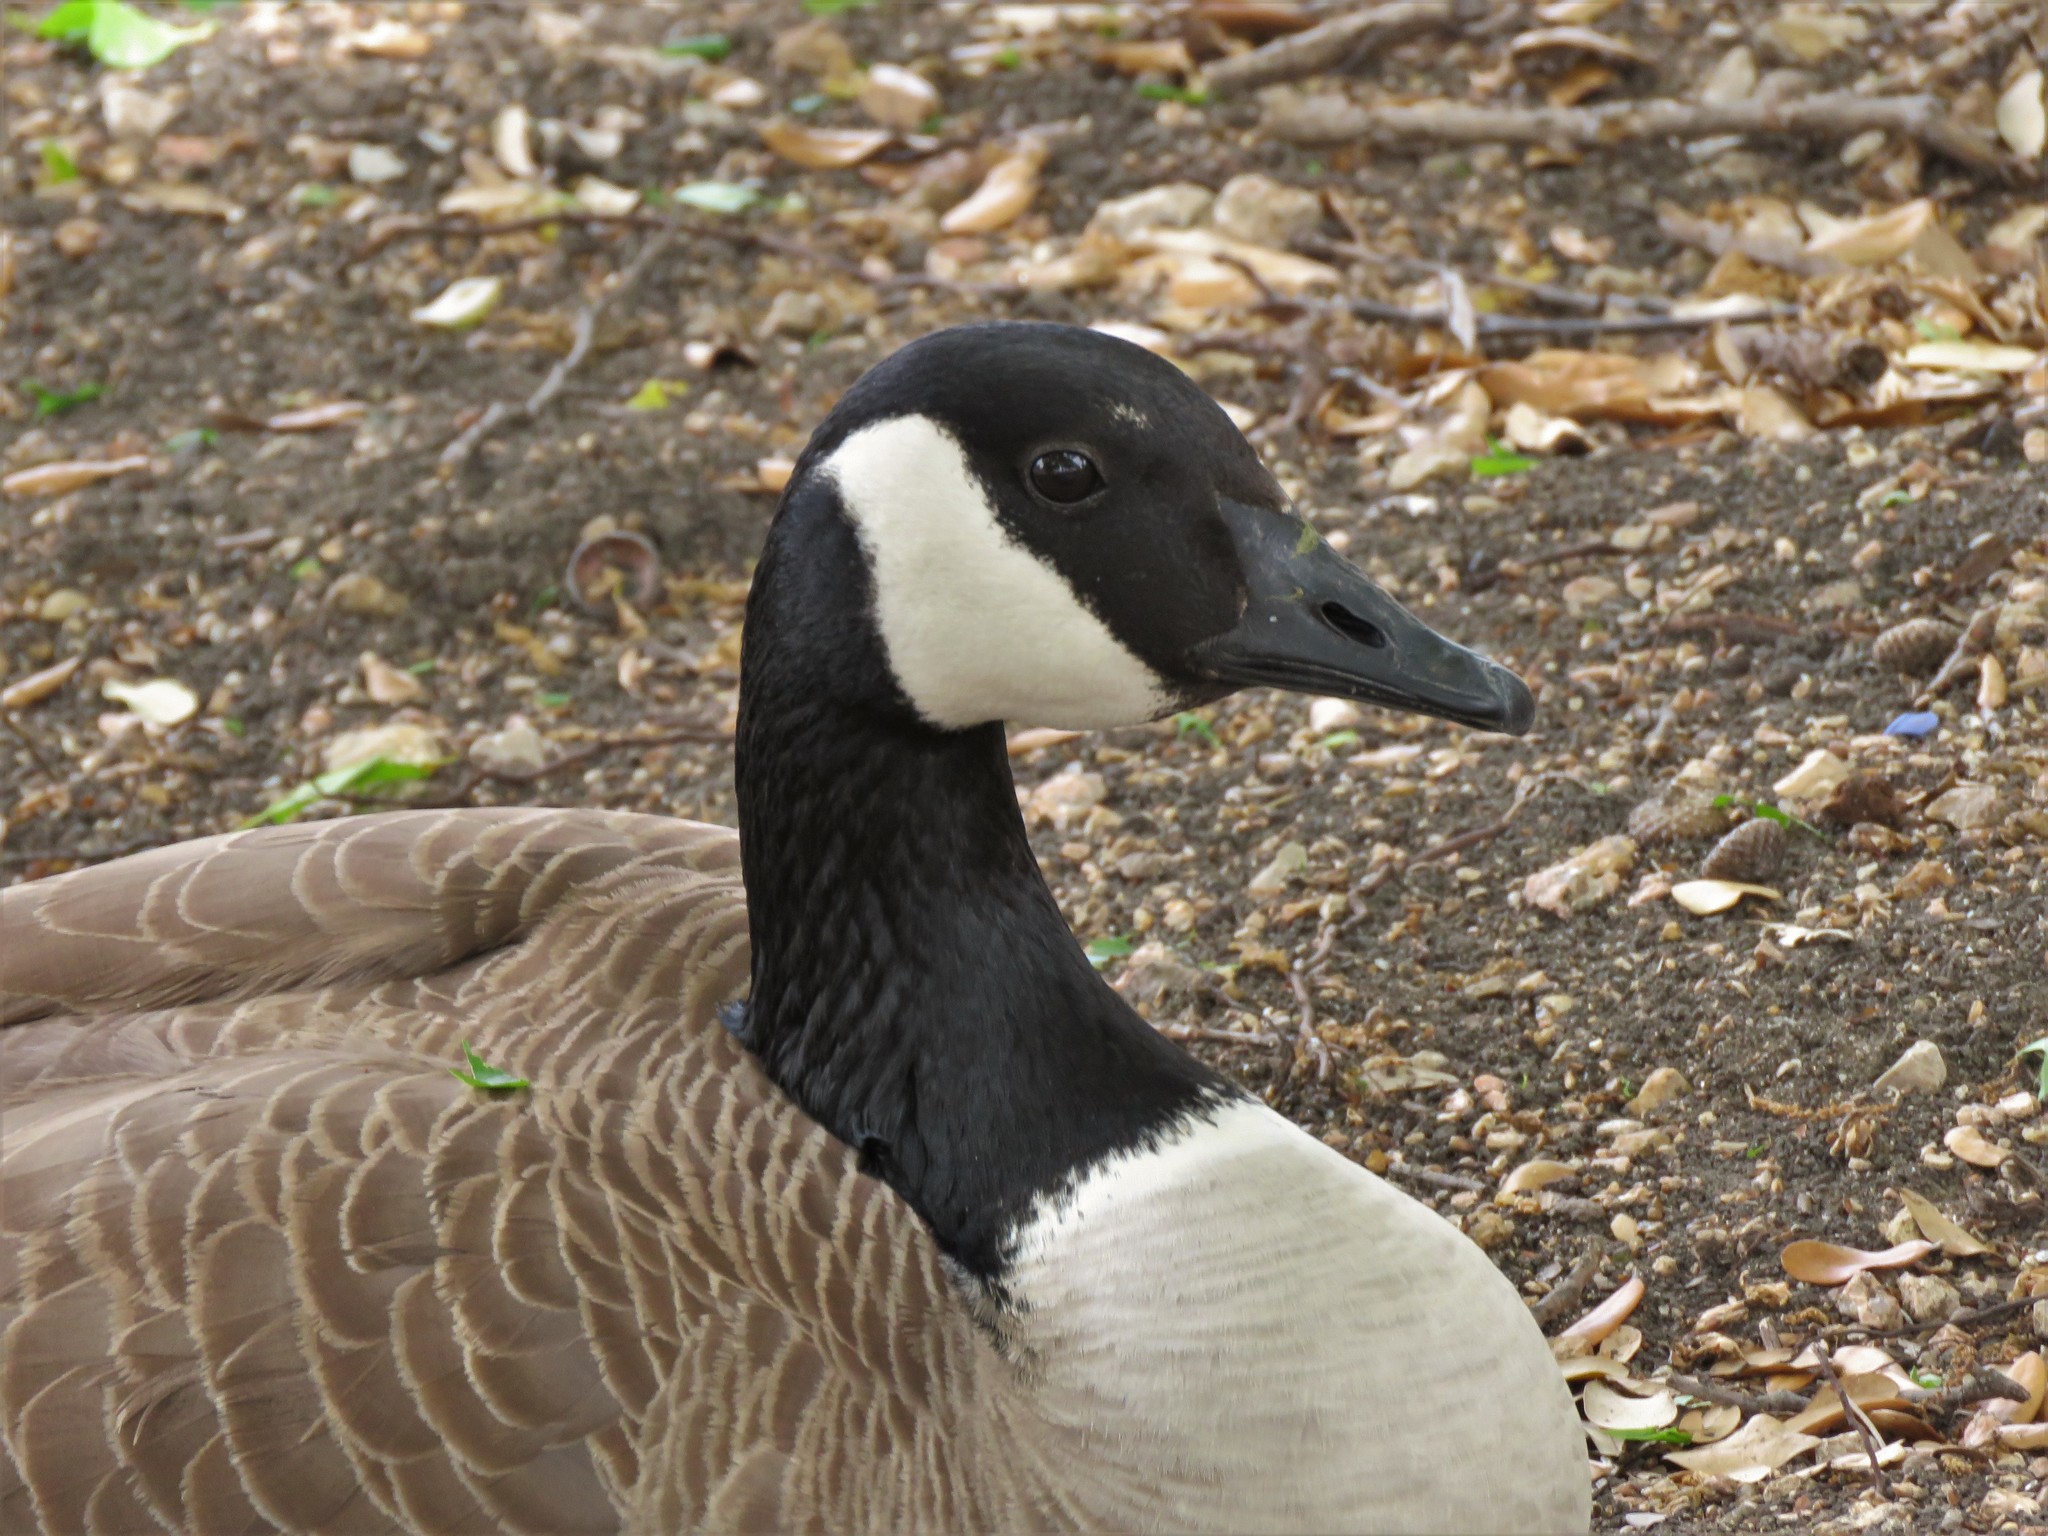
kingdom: Animalia
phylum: Chordata
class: Aves
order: Anseriformes
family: Anatidae
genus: Branta
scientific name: Branta canadensis
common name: Canada goose
